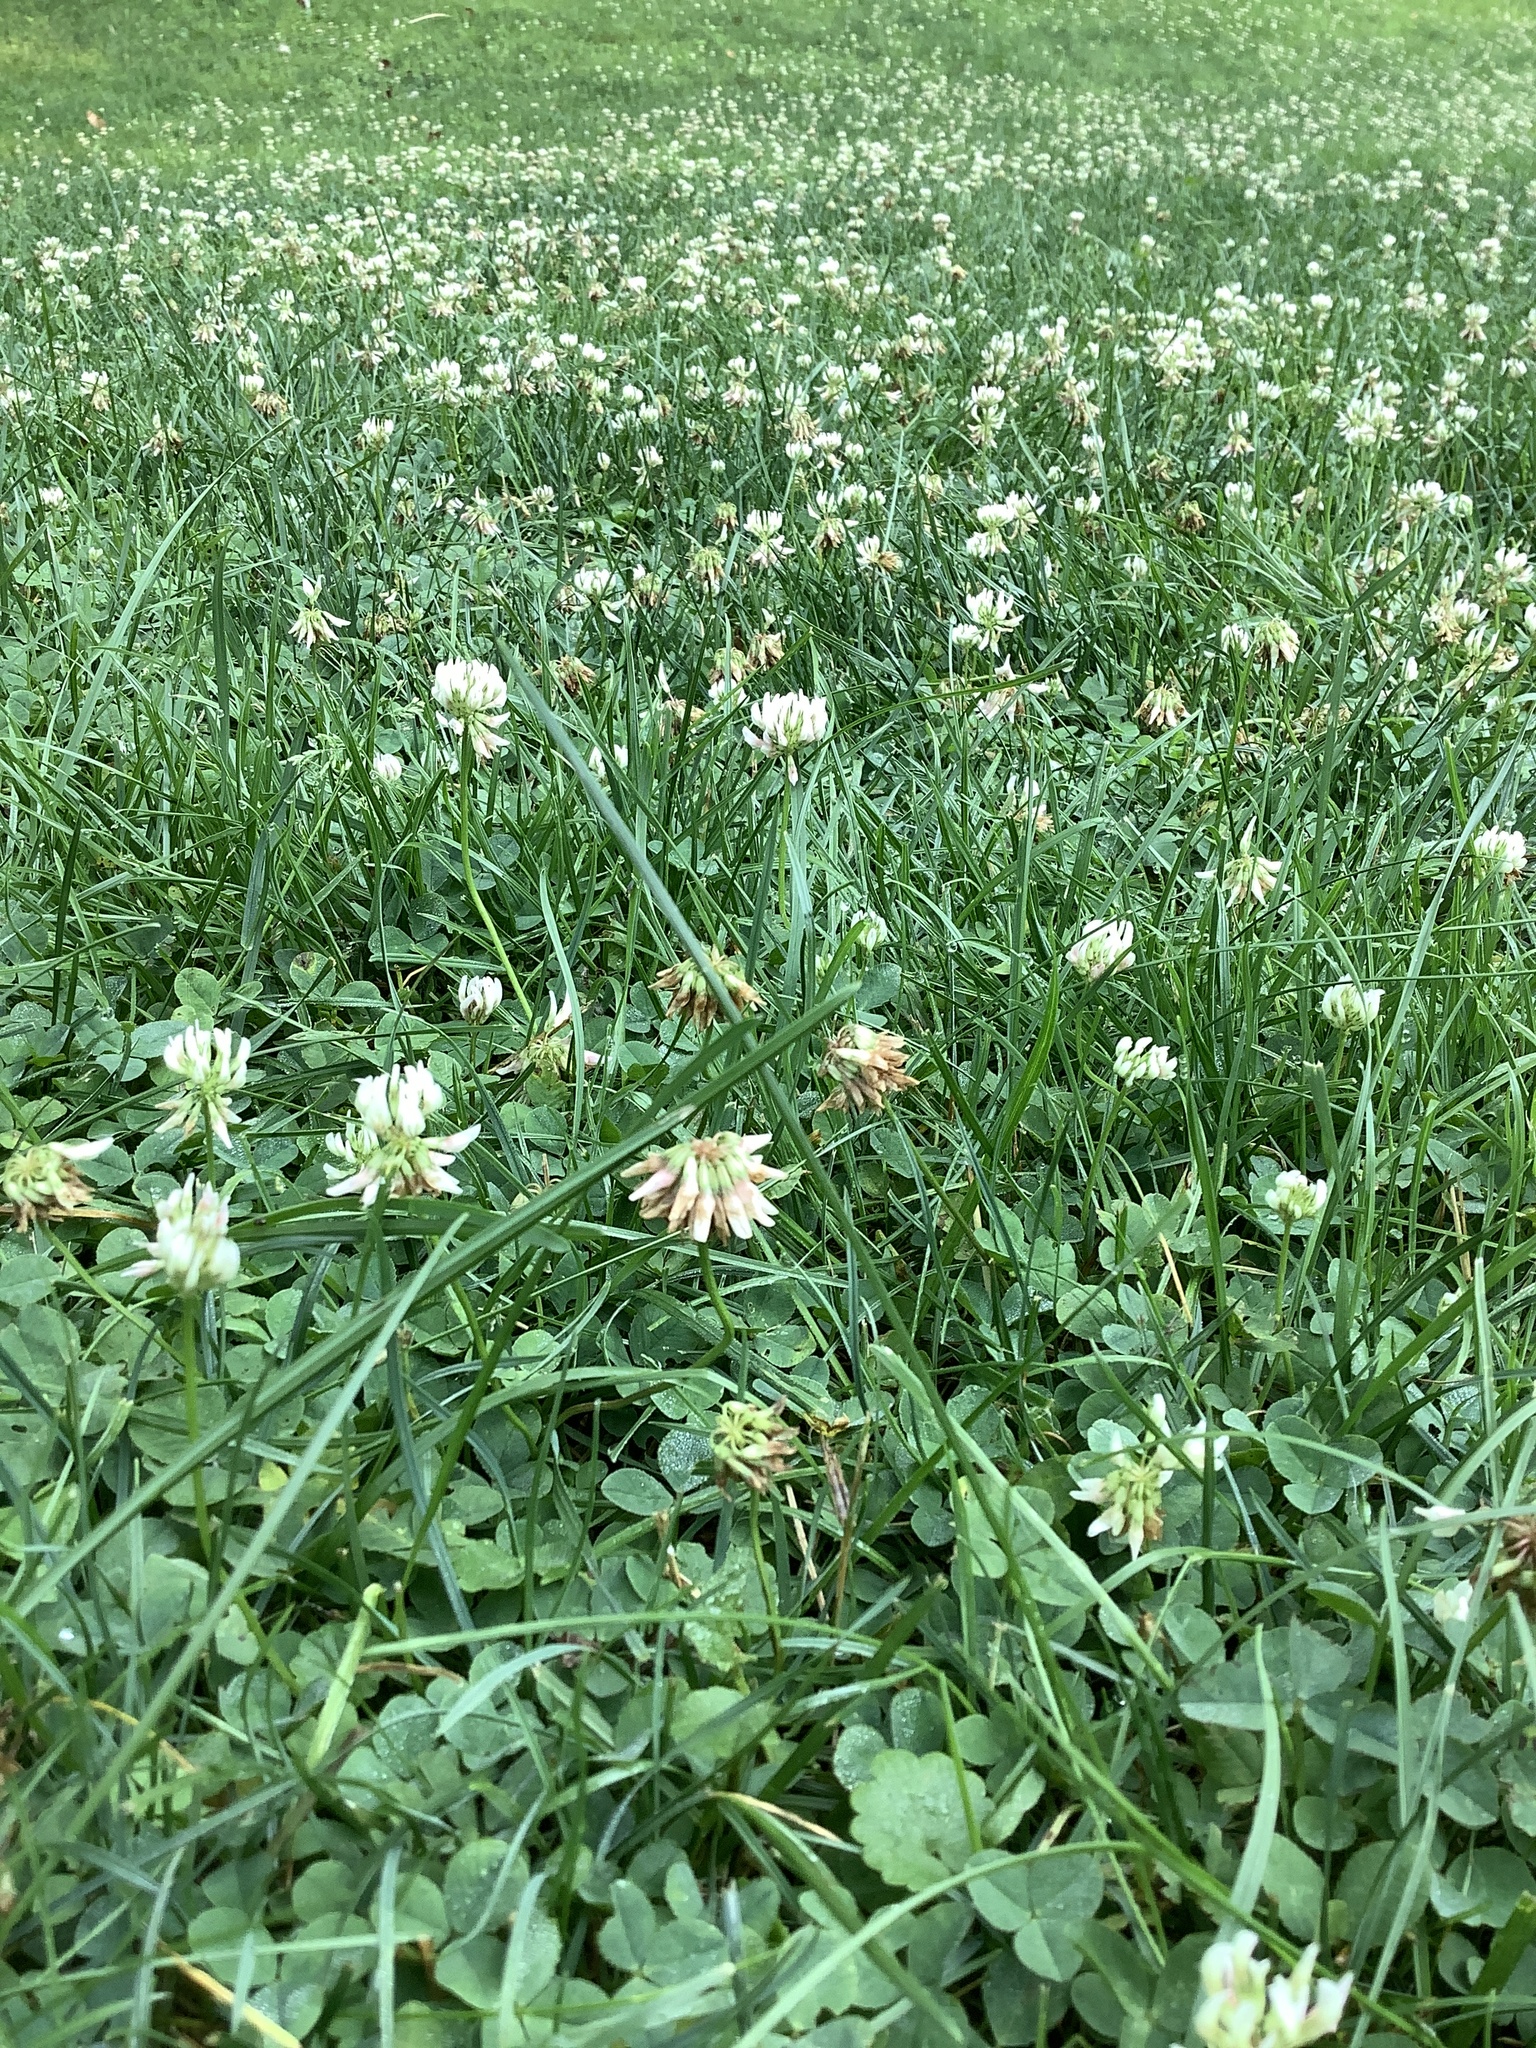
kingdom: Plantae
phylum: Tracheophyta
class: Magnoliopsida
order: Fabales
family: Fabaceae
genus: Trifolium
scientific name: Trifolium repens
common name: White clover
